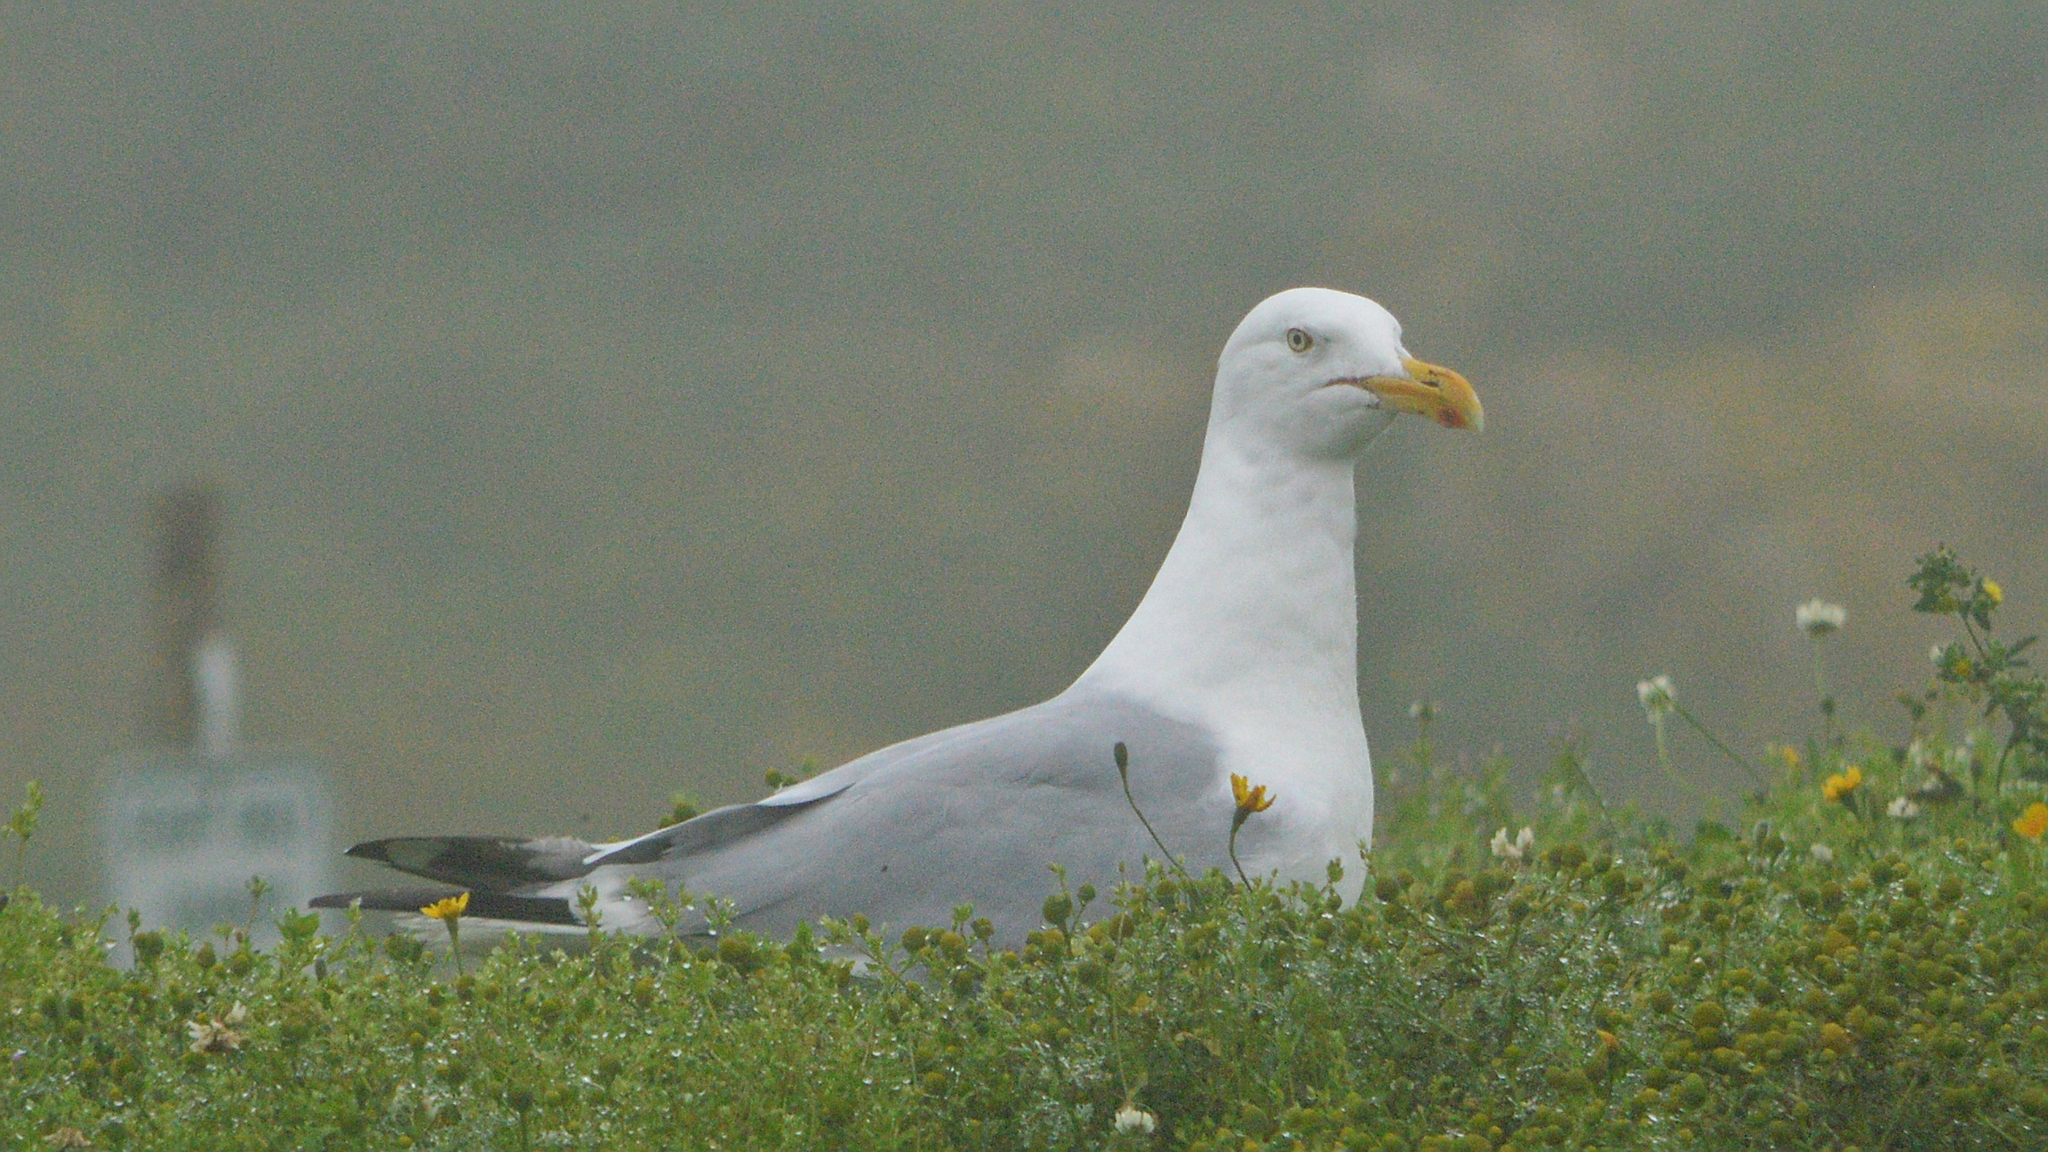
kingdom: Animalia
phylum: Chordata
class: Aves
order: Charadriiformes
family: Laridae
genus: Larus
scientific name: Larus argentatus
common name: Herring gull
